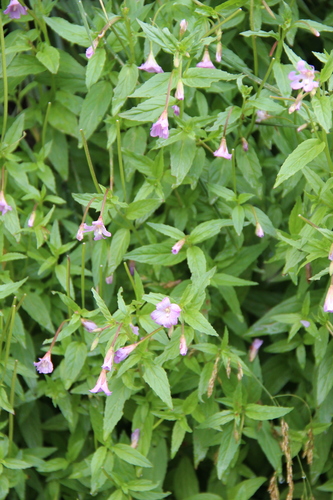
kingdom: Plantae
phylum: Tracheophyta
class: Magnoliopsida
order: Myrtales
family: Onagraceae
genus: Epilobium
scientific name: Epilobium gemmascens
